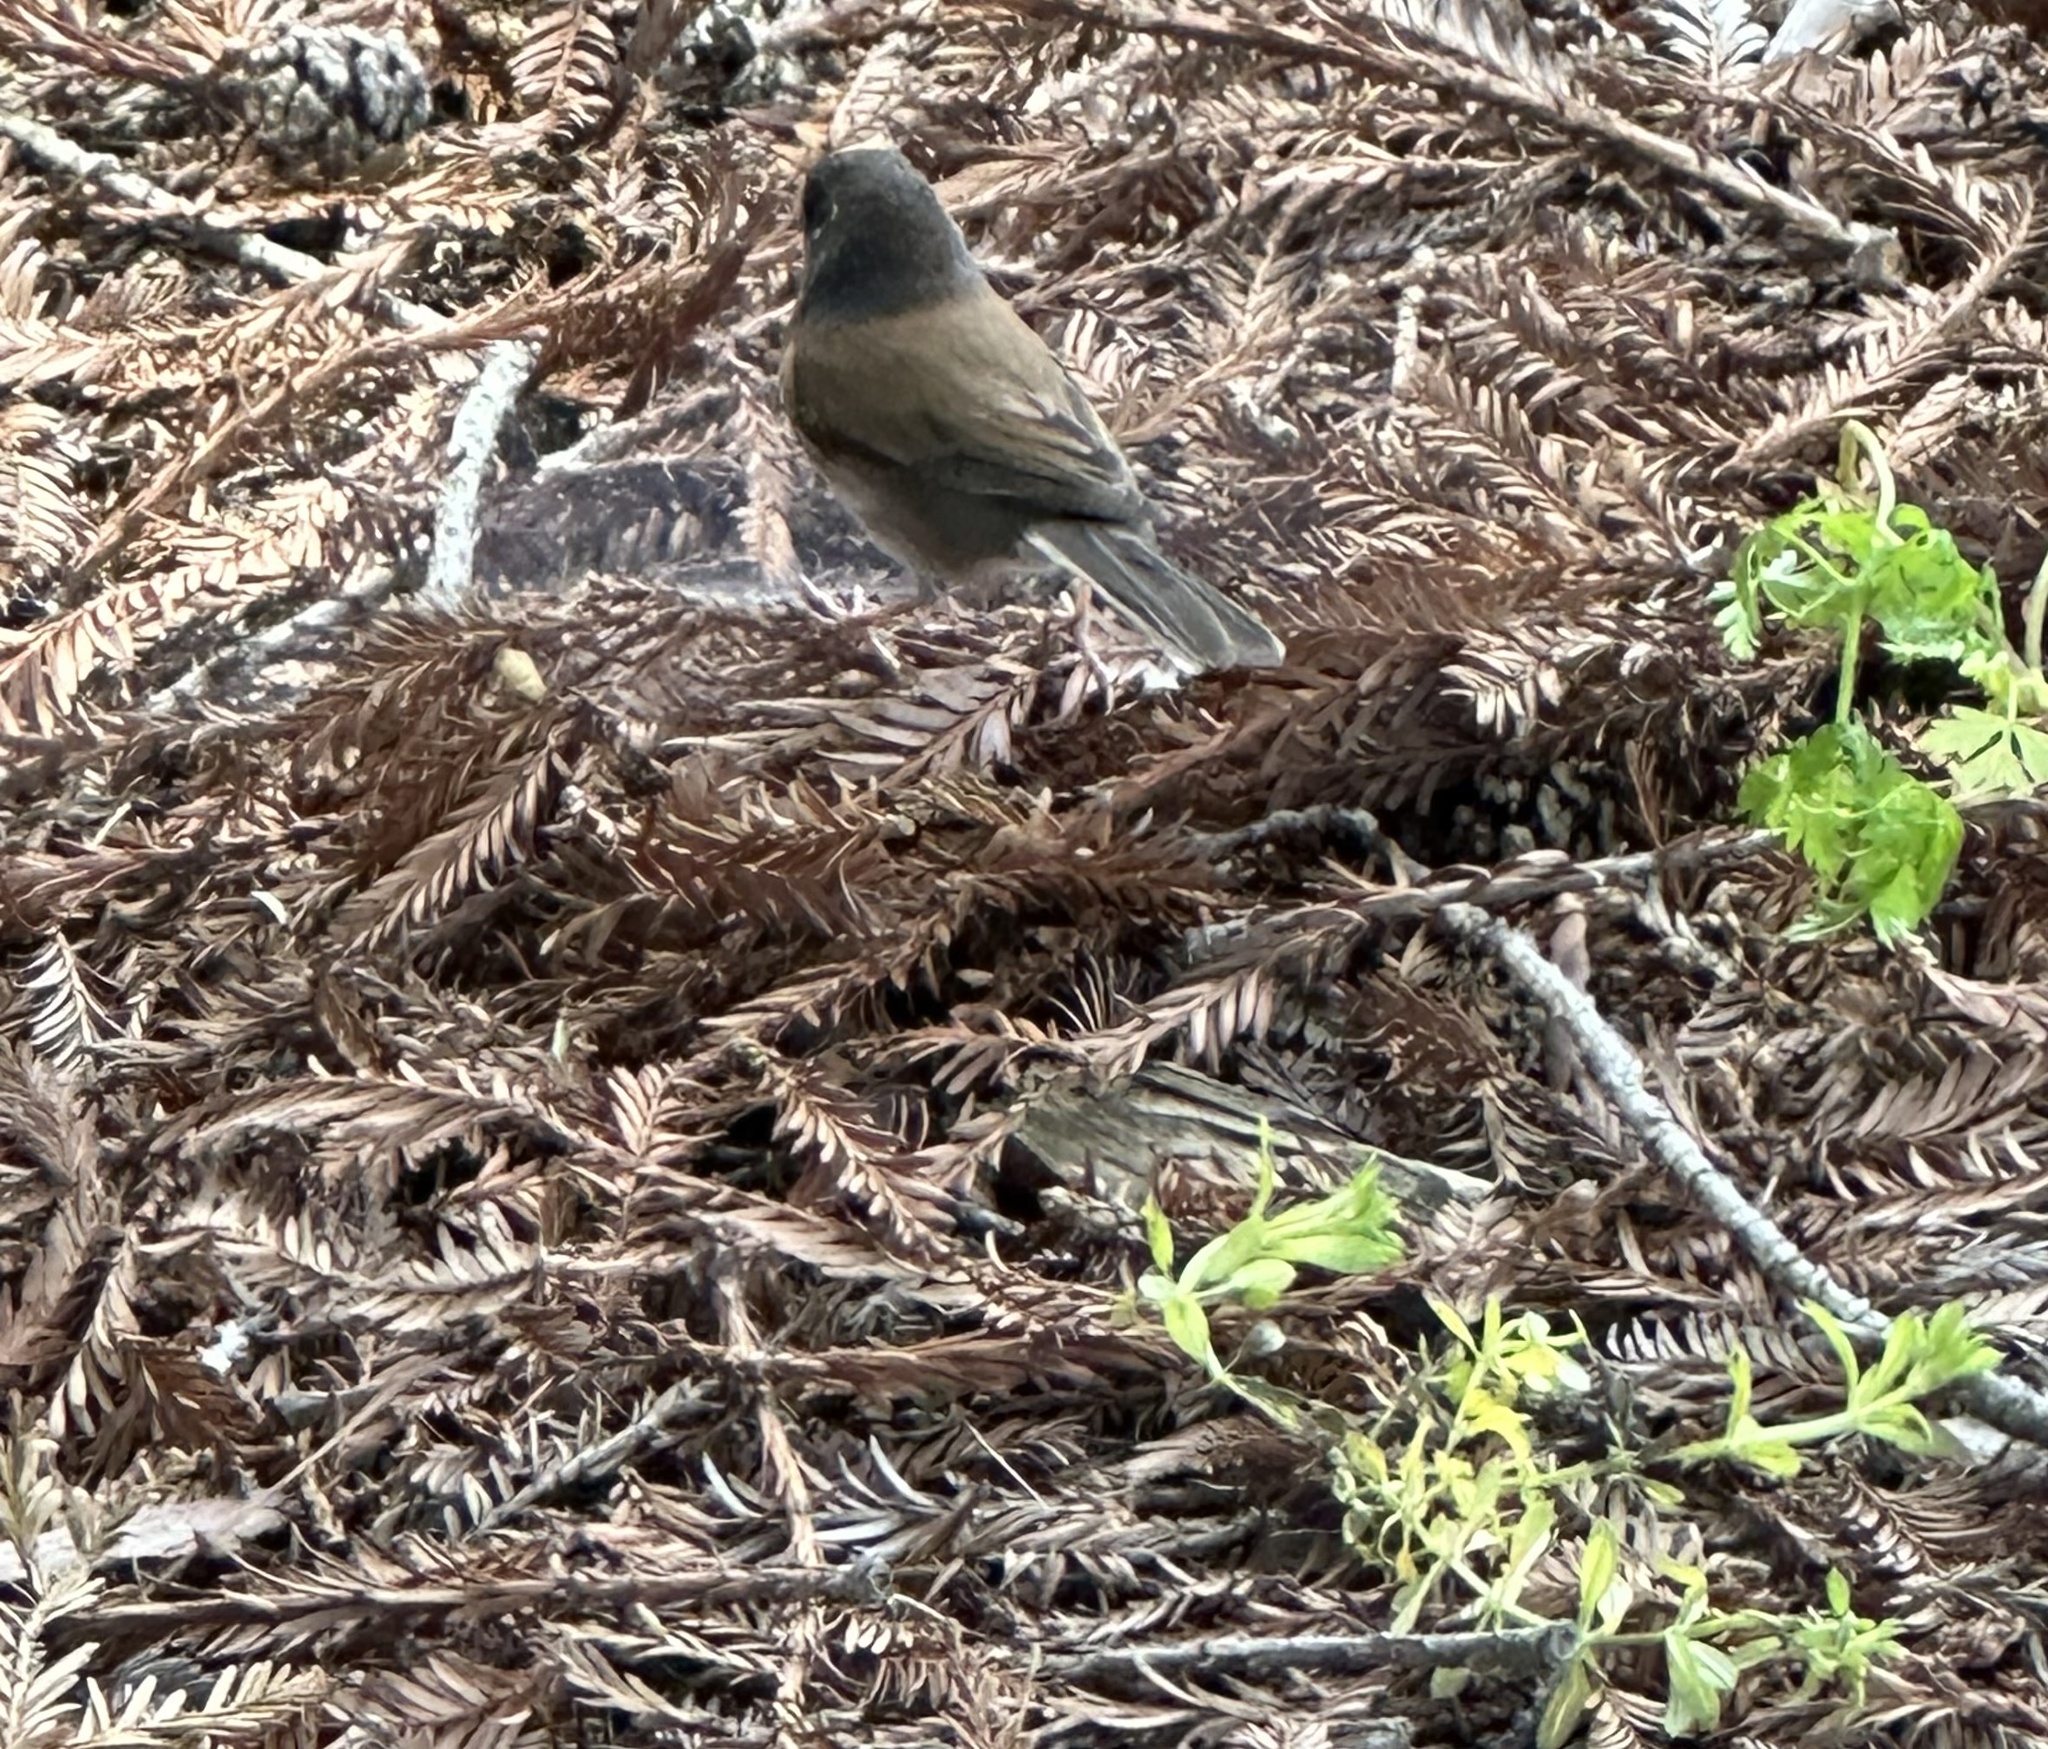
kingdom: Animalia
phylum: Chordata
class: Aves
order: Passeriformes
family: Passerellidae
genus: Junco
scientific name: Junco hyemalis
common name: Dark-eyed junco
